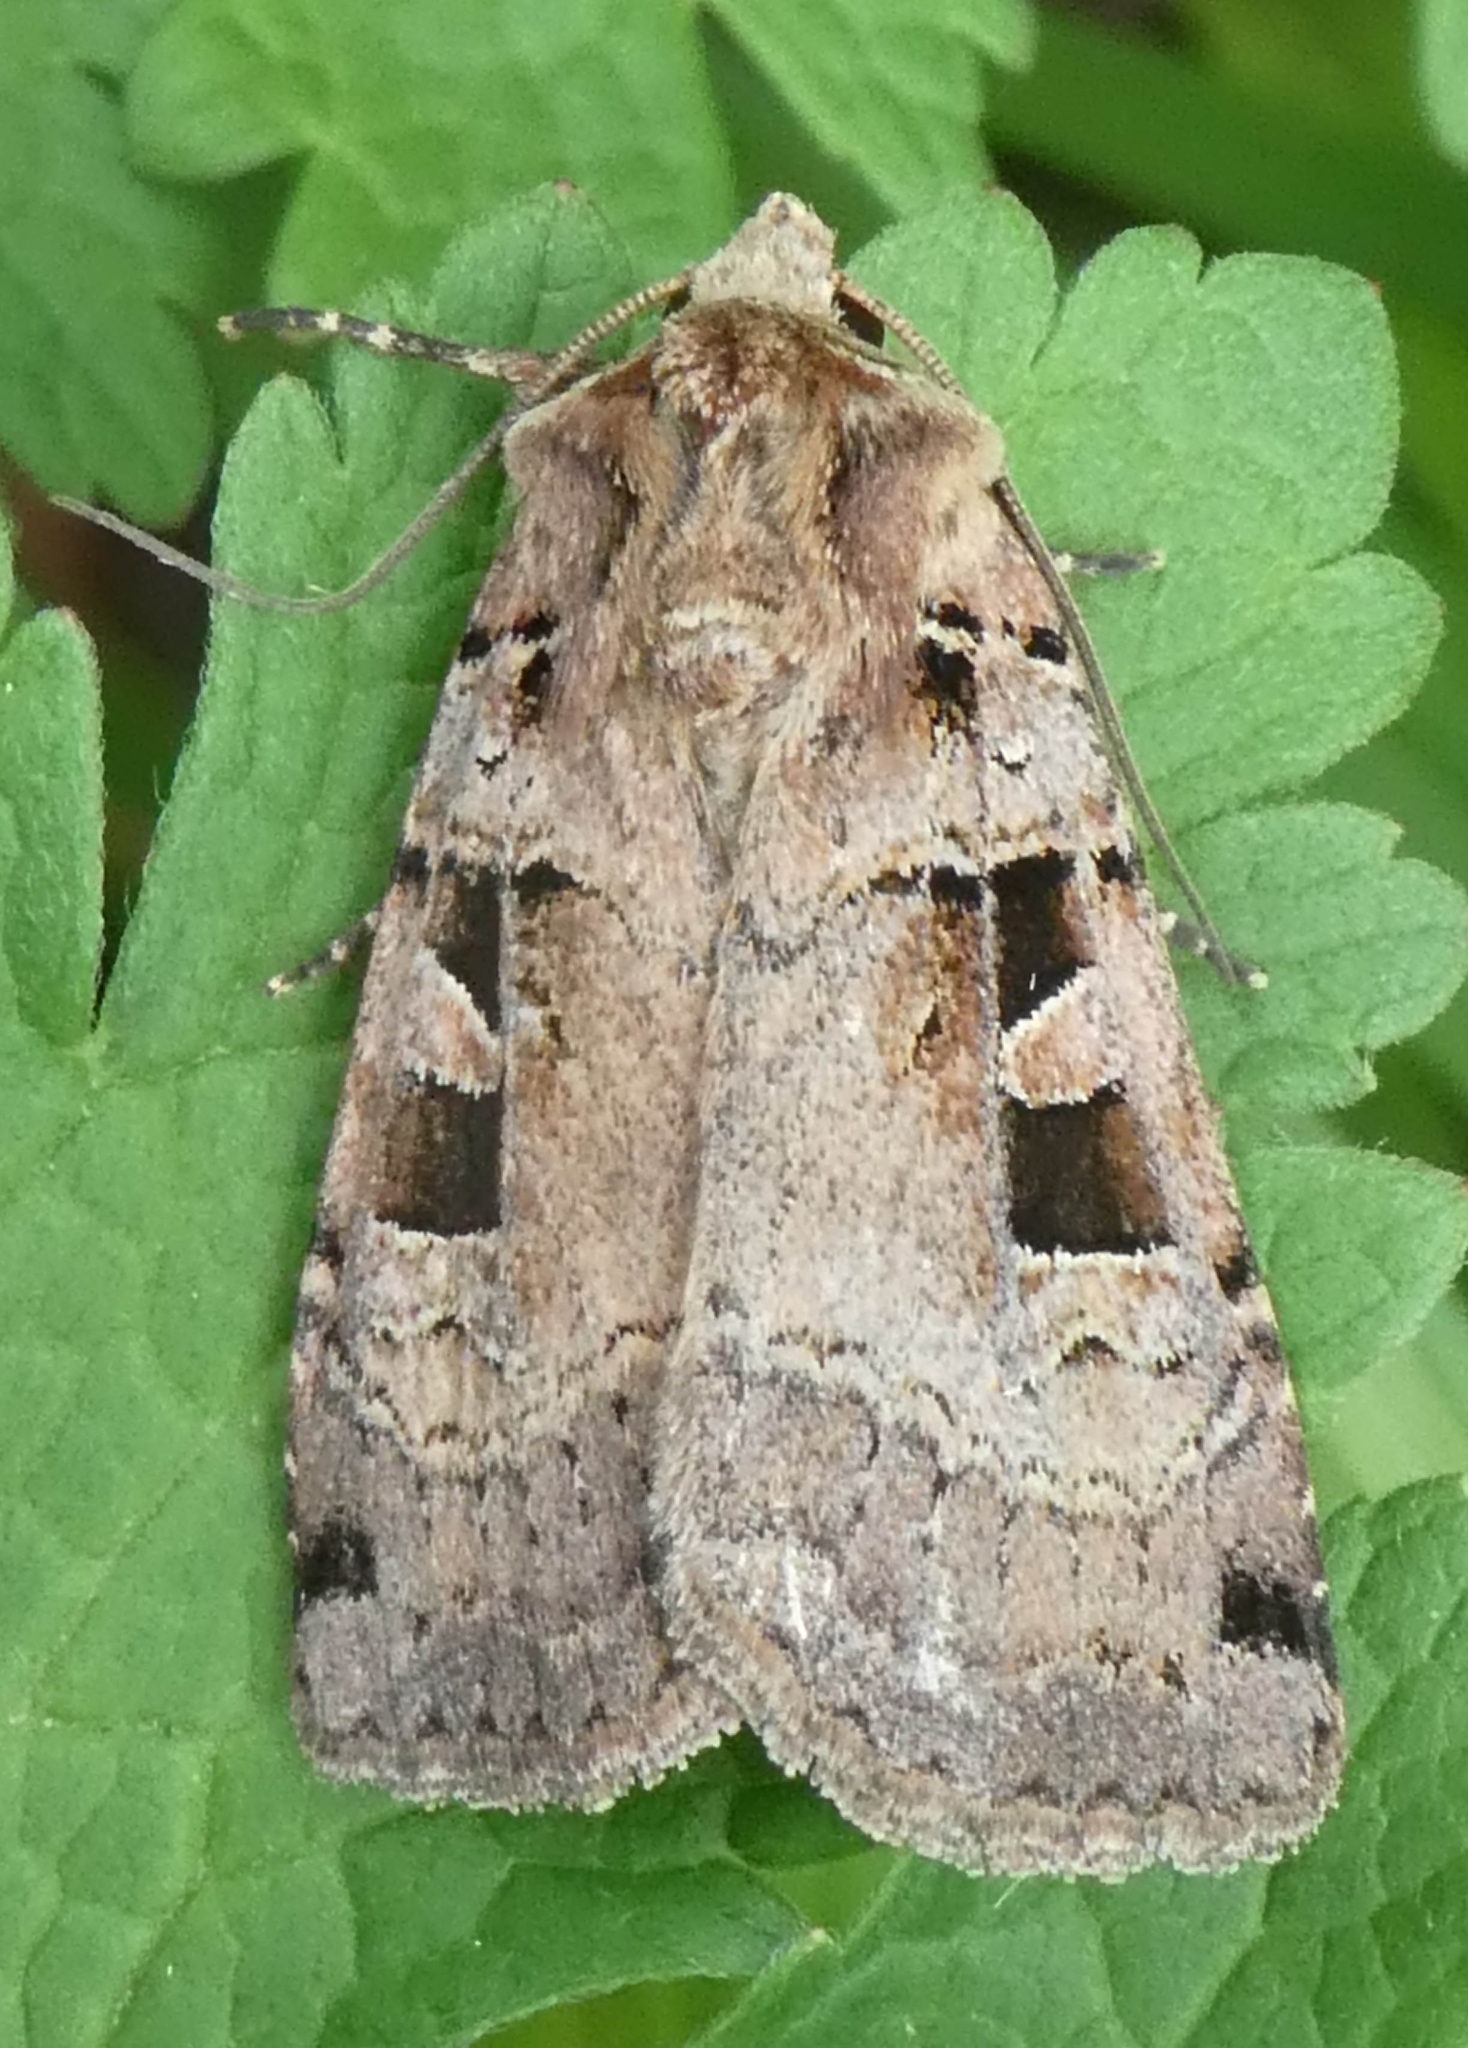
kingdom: Animalia
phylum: Arthropoda
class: Insecta
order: Lepidoptera
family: Noctuidae
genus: Xestia
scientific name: Xestia triangulum
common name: Double square-spot
